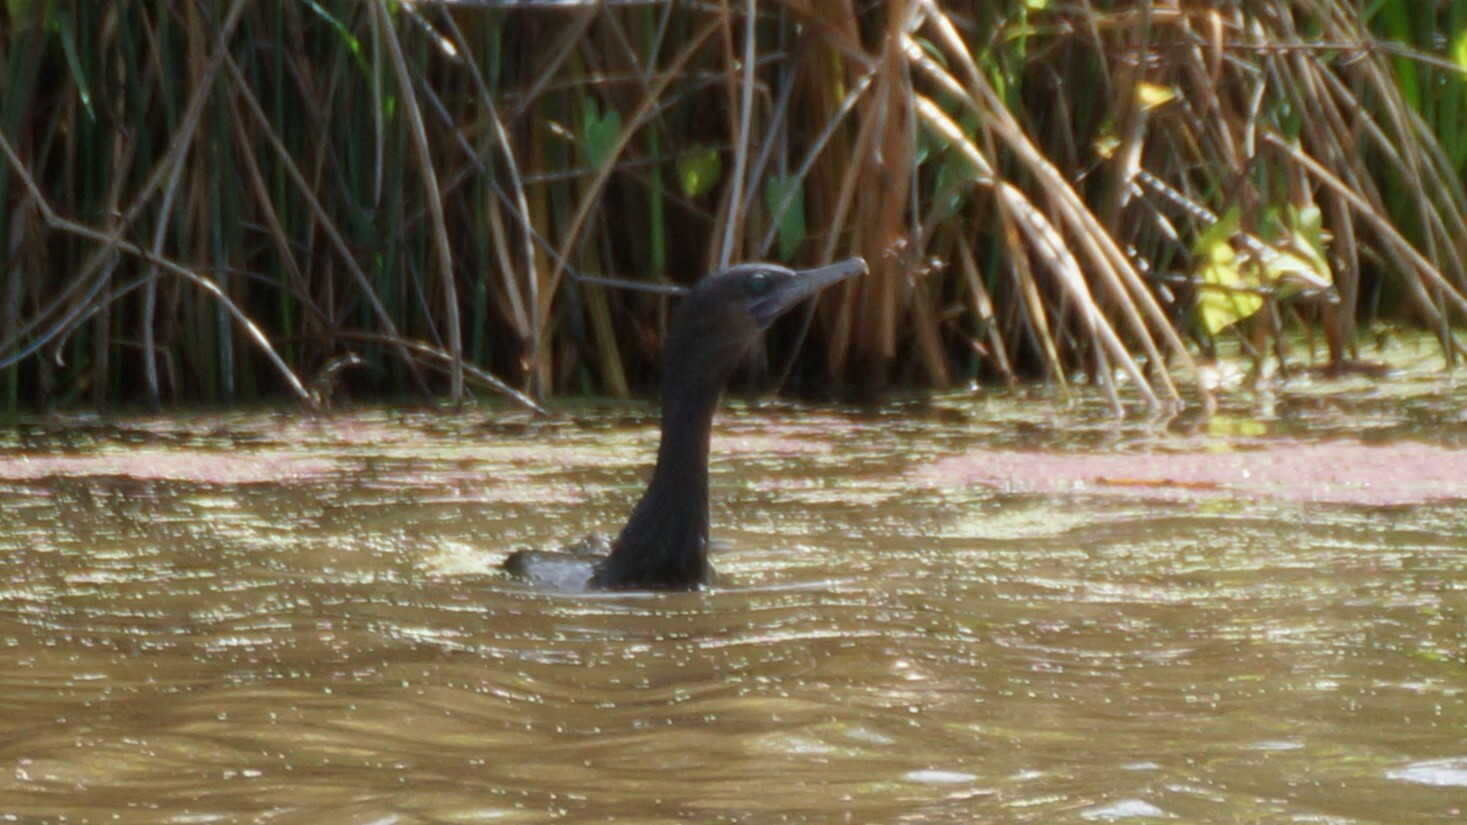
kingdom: Animalia
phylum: Chordata
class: Aves
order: Suliformes
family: Phalacrocoracidae
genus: Phalacrocorax
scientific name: Phalacrocorax sulcirostris
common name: Little black cormorant
